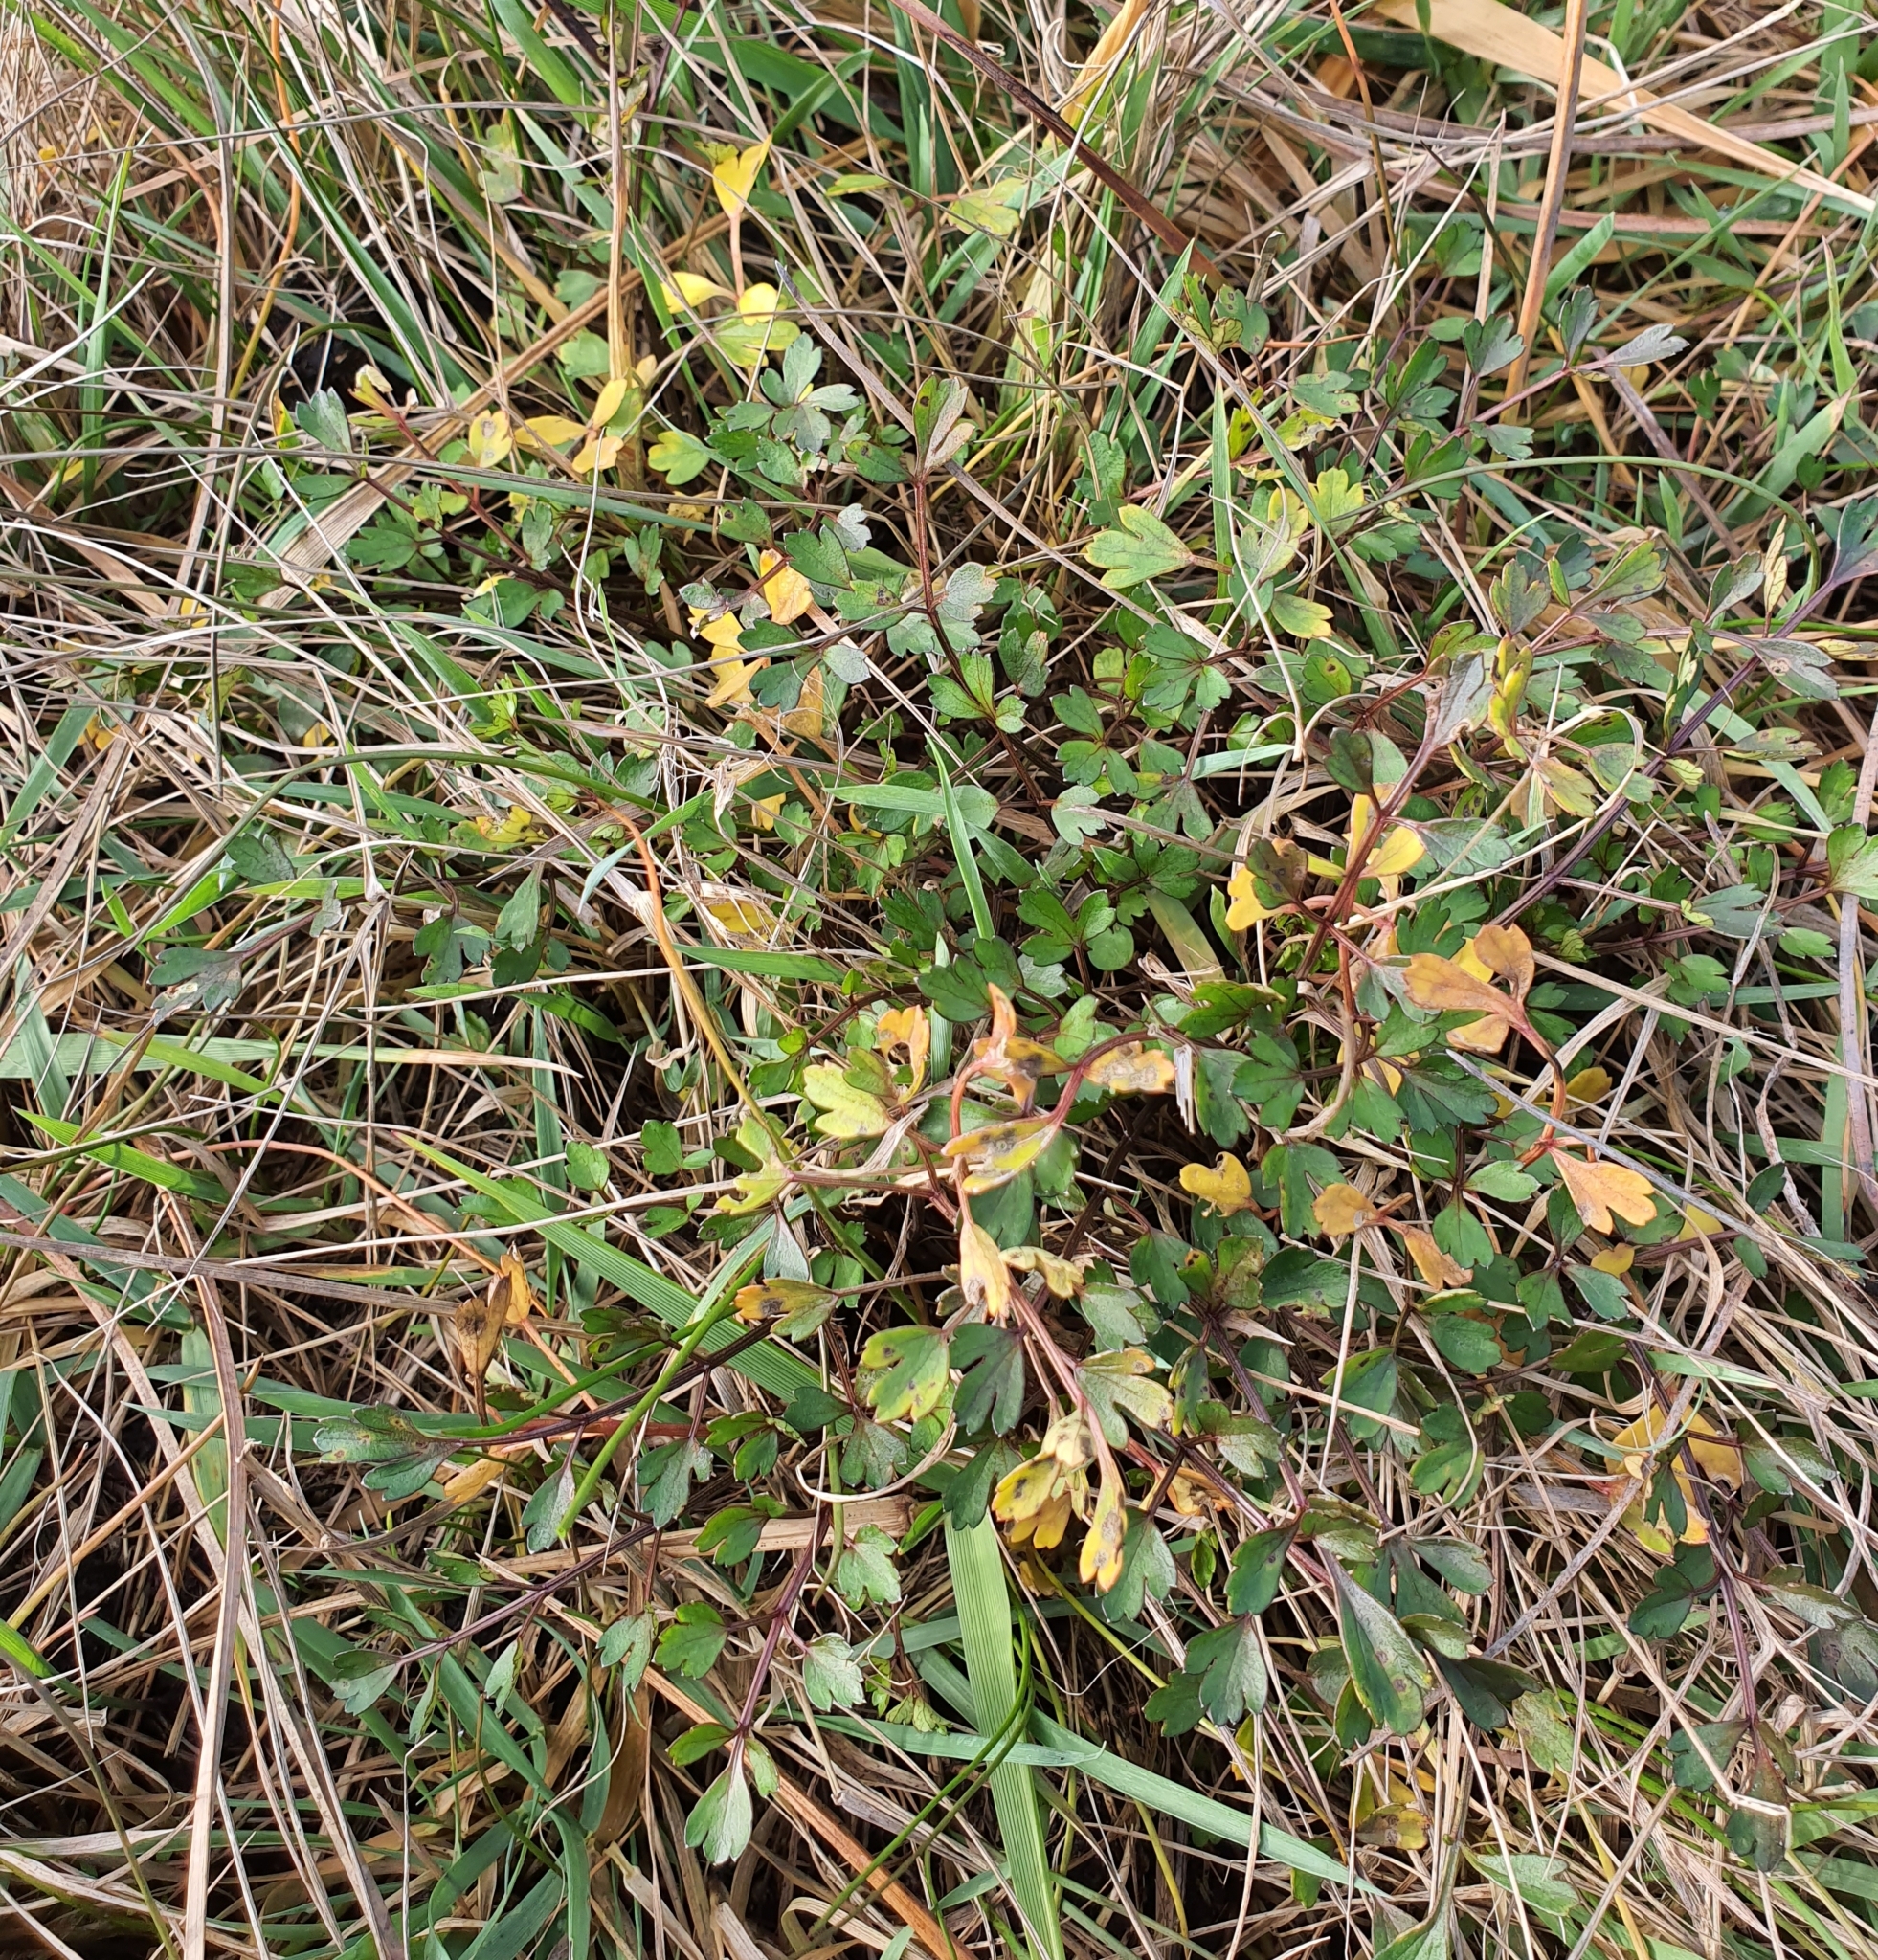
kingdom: Plantae
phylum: Tracheophyta
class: Magnoliopsida
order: Apiales
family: Apiaceae
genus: Apium
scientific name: Apium prostratum
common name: Prostrate marshwort
